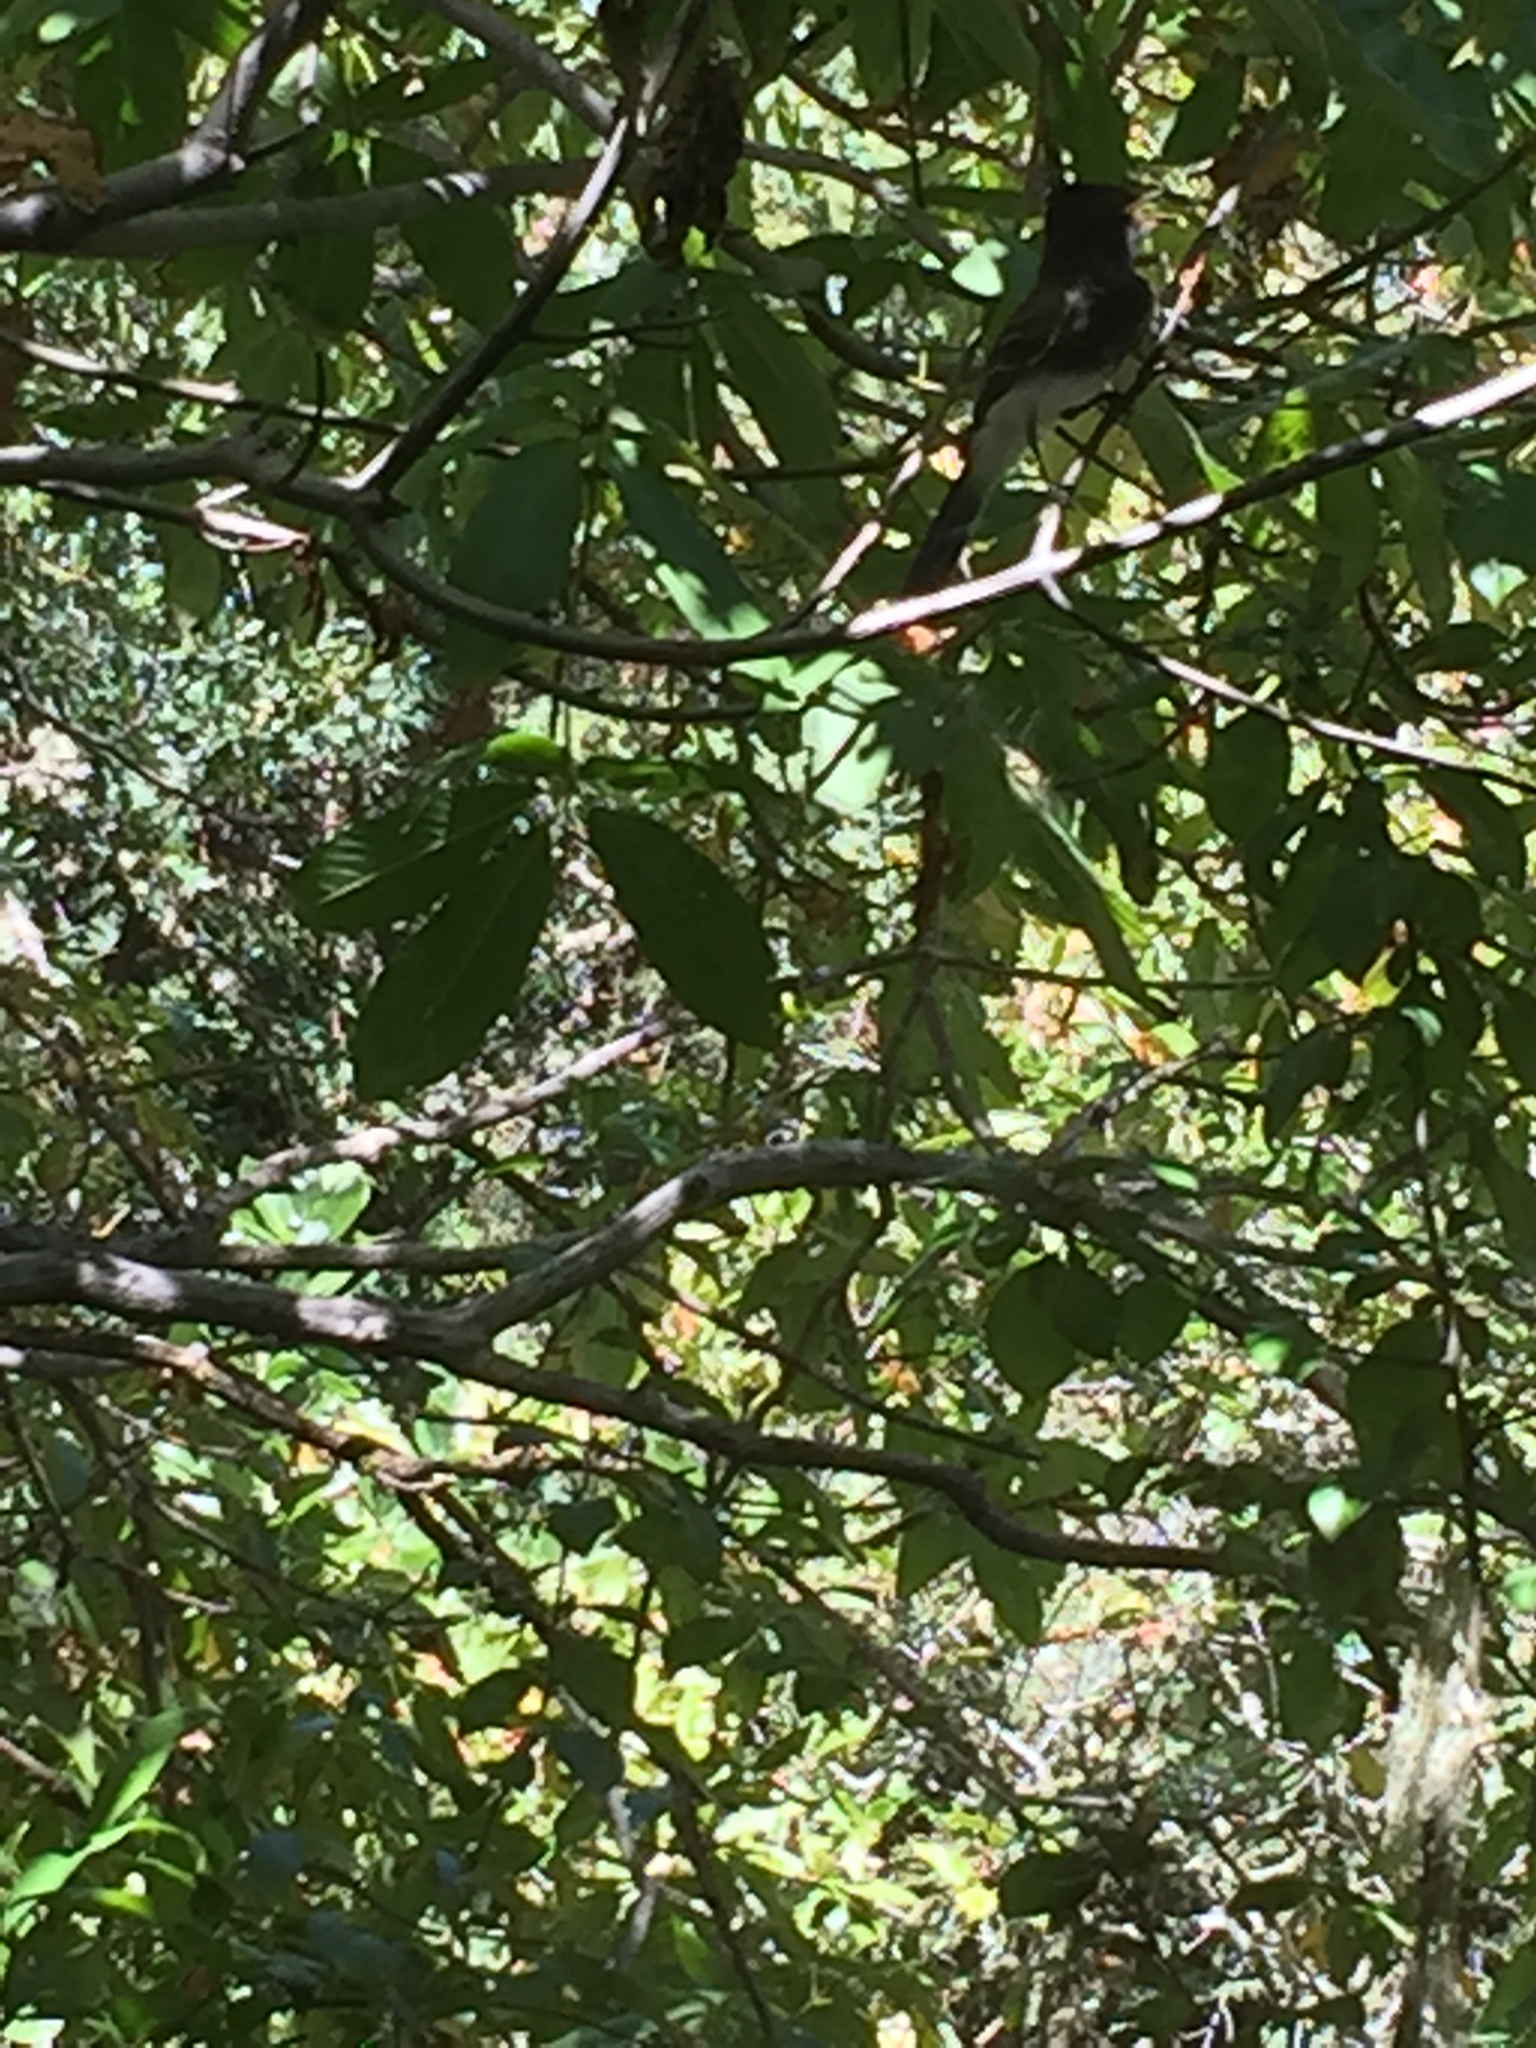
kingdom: Animalia
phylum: Chordata
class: Aves
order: Passeriformes
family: Tyrannidae
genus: Sayornis
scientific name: Sayornis nigricans
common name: Black phoebe
